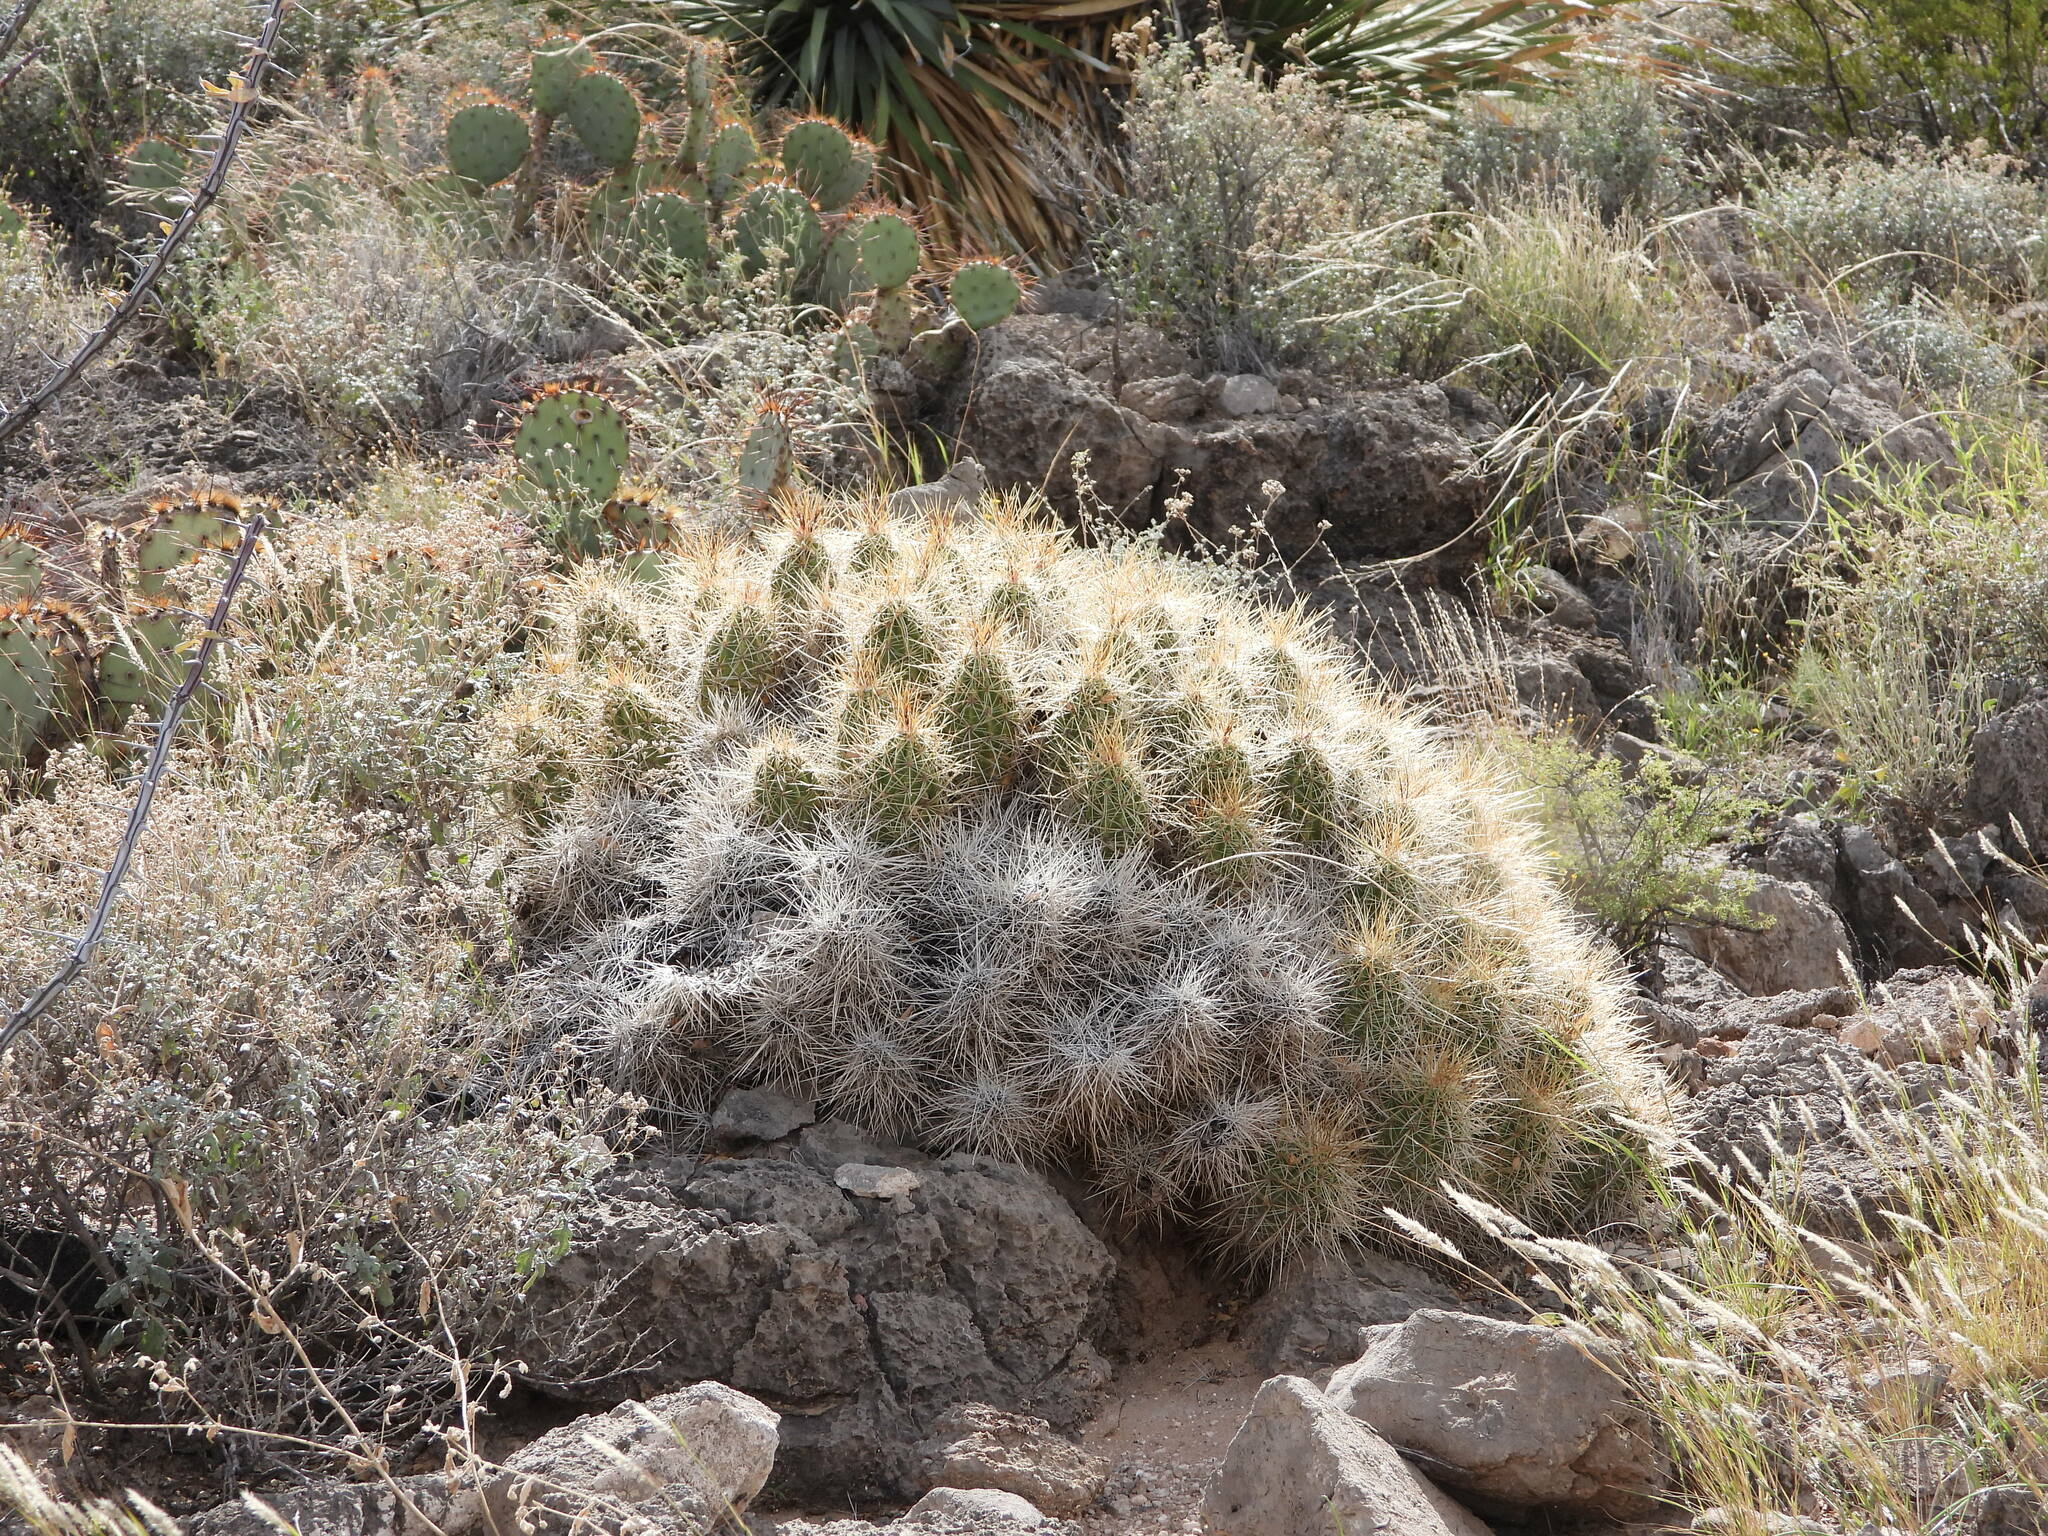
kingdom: Plantae
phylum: Tracheophyta
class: Magnoliopsida
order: Caryophyllales
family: Cactaceae
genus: Echinocereus
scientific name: Echinocereus stramineus
